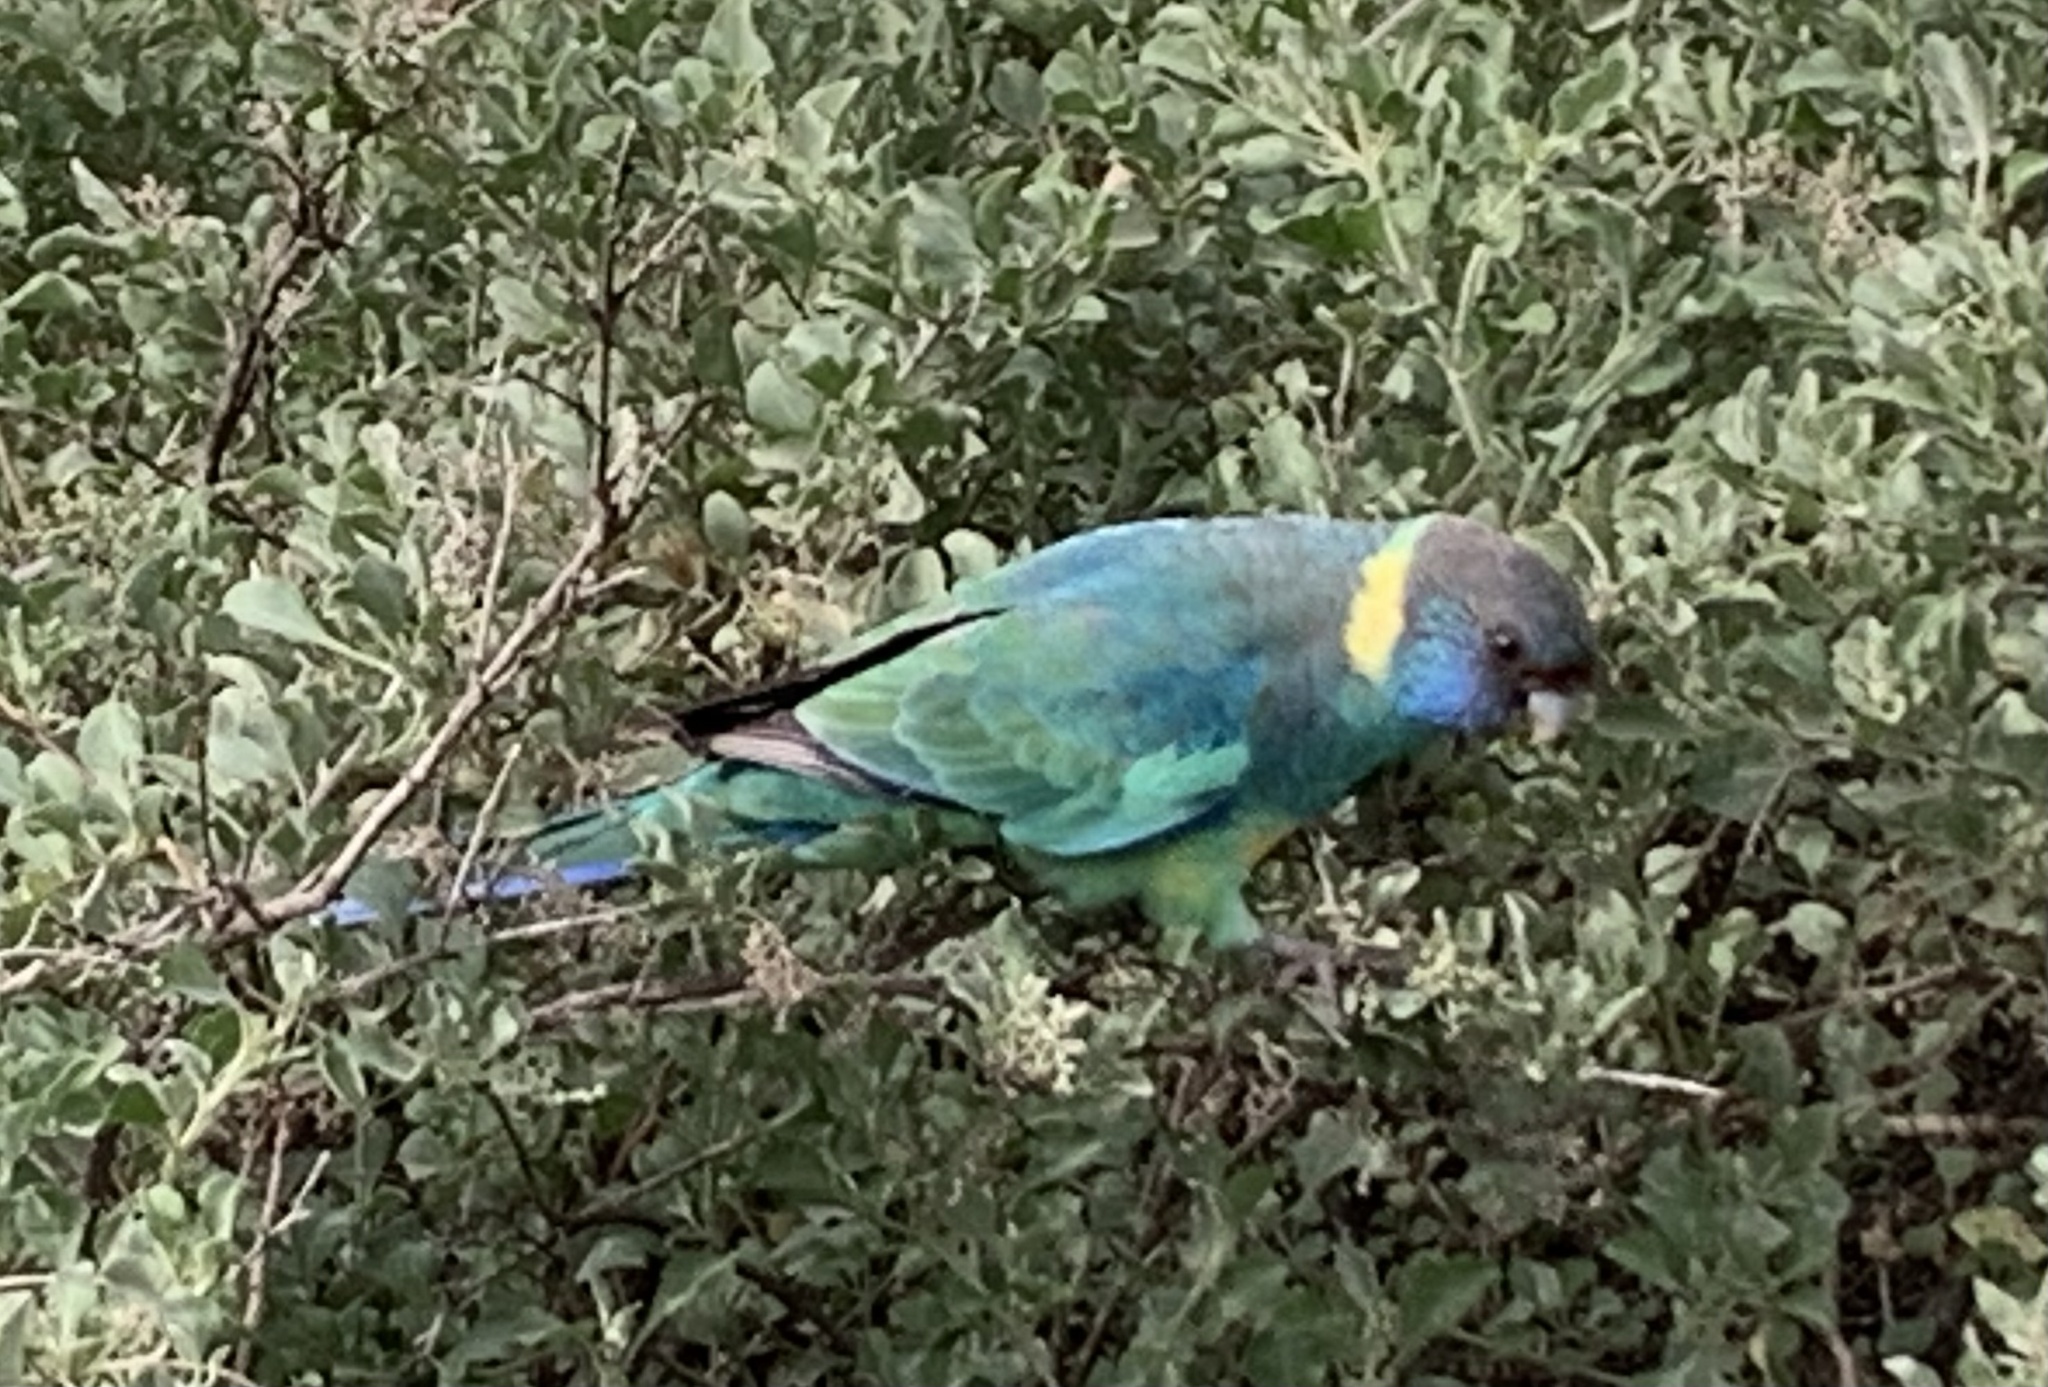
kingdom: Animalia
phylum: Chordata
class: Aves
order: Psittaciformes
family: Psittacidae
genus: Barnardius
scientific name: Barnardius zonarius
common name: Australian ringneck
